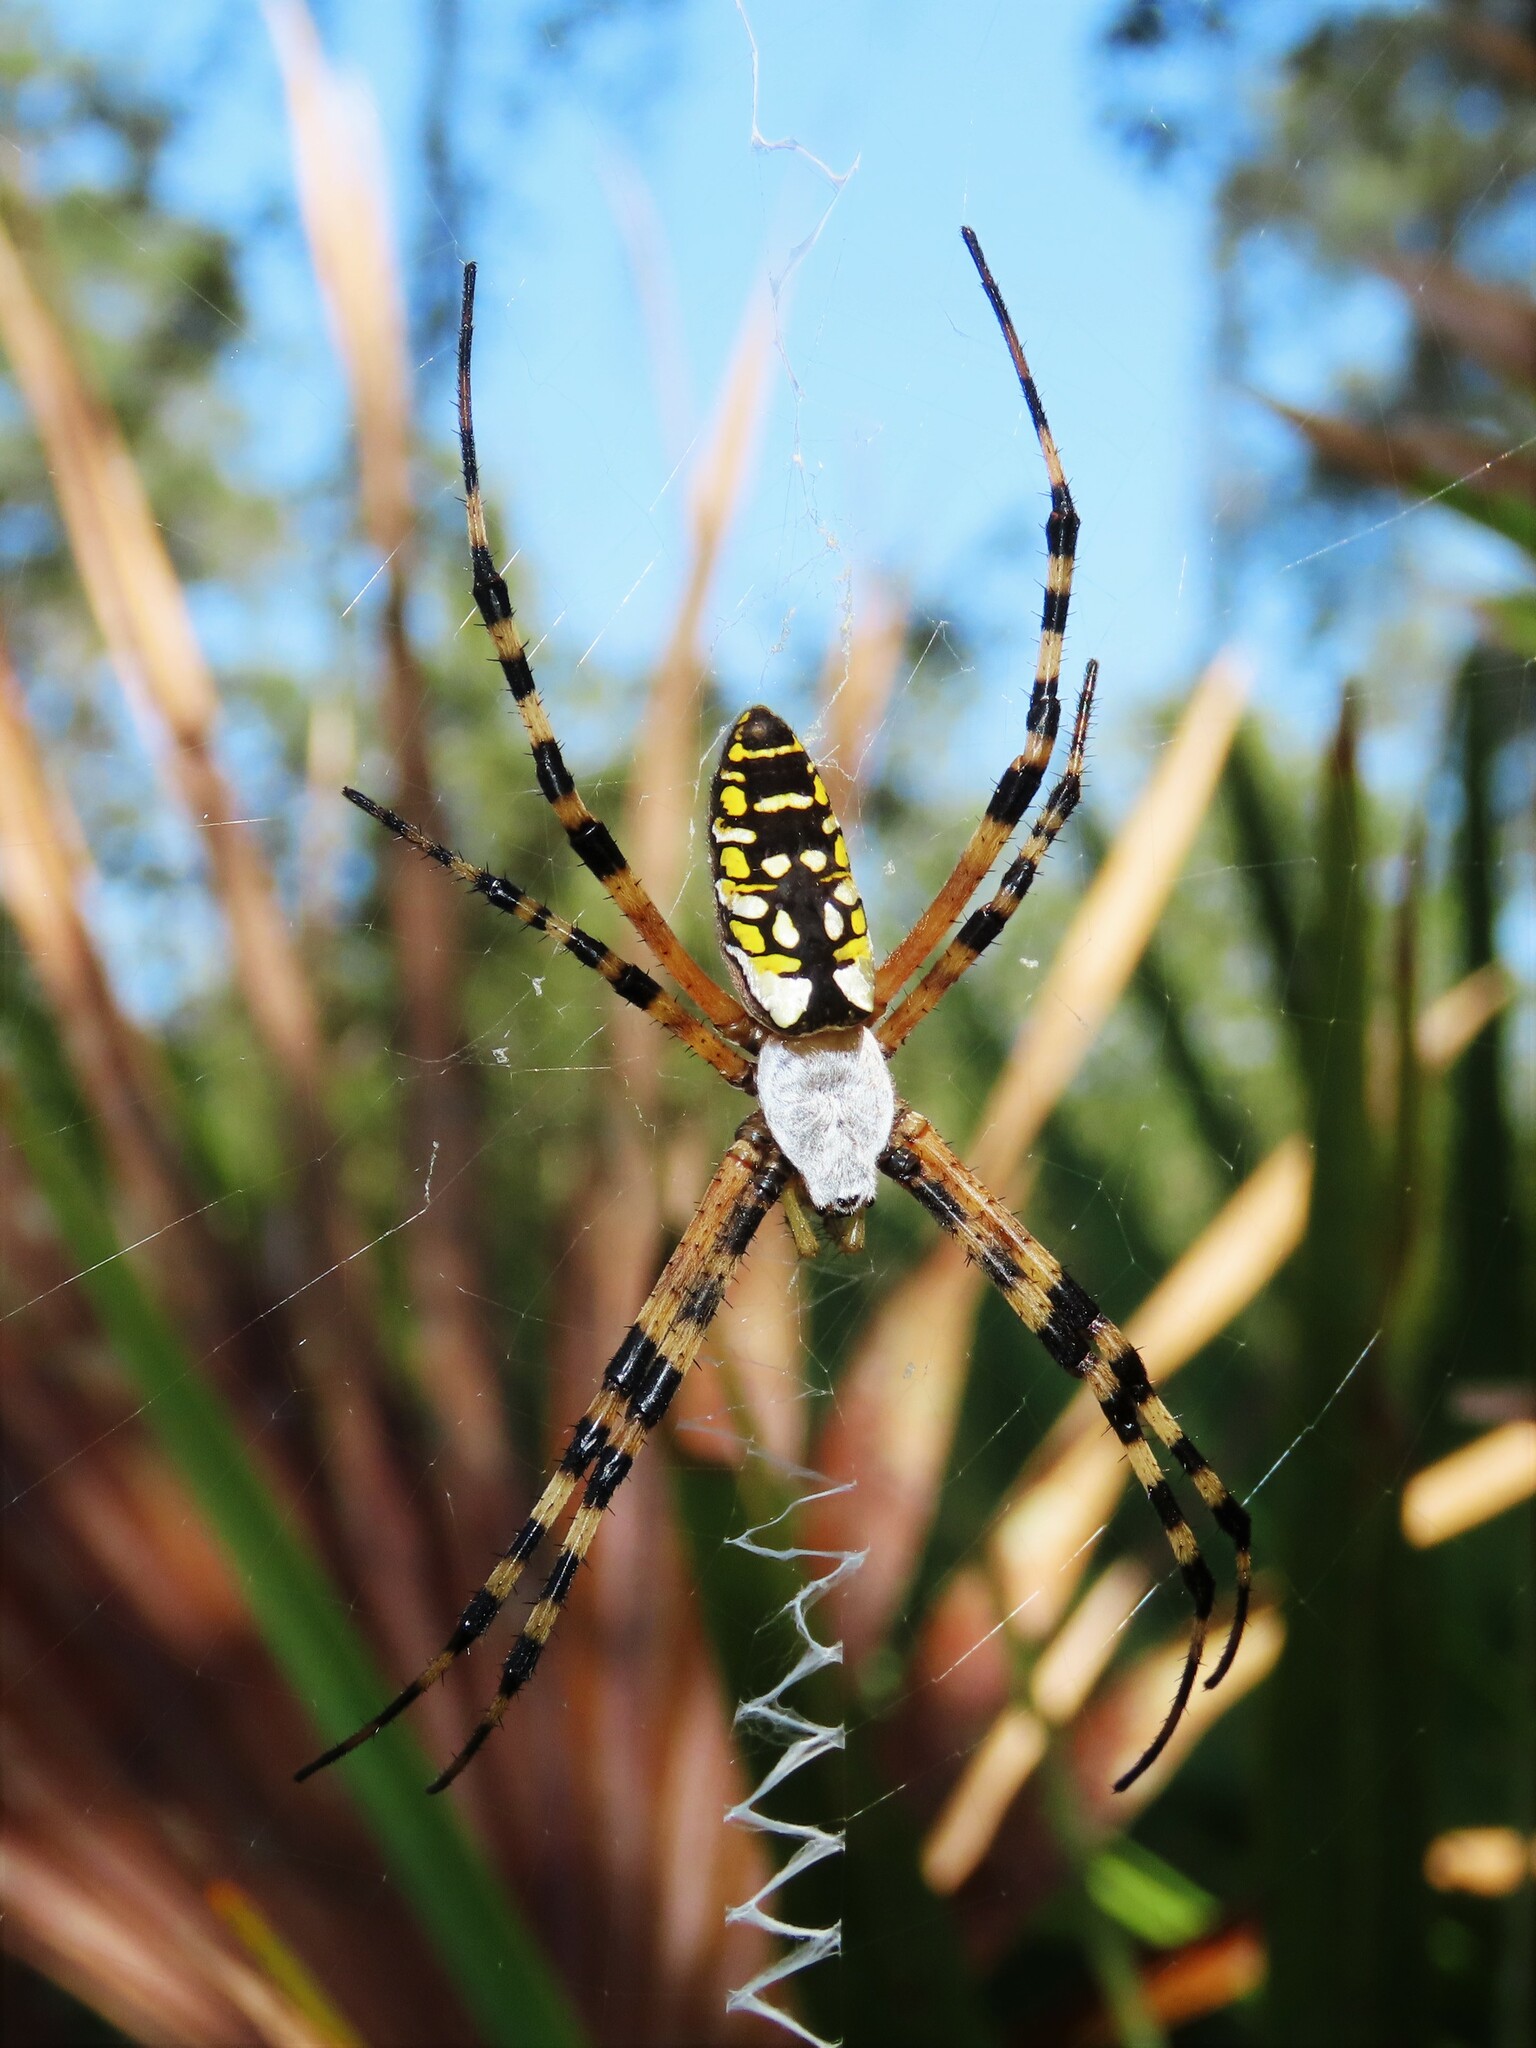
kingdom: Animalia
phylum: Arthropoda
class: Arachnida
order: Araneae
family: Araneidae
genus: Argiope
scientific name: Argiope aurantia
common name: Orb weavers
